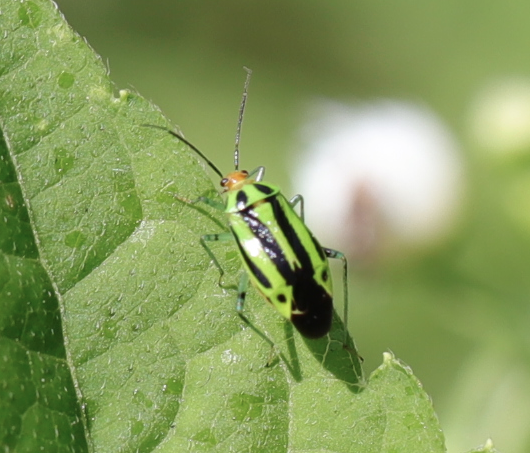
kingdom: Animalia
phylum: Arthropoda
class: Insecta
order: Hemiptera
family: Miridae
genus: Poecilocapsus
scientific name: Poecilocapsus lineatus
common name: Four-lined plant bug
